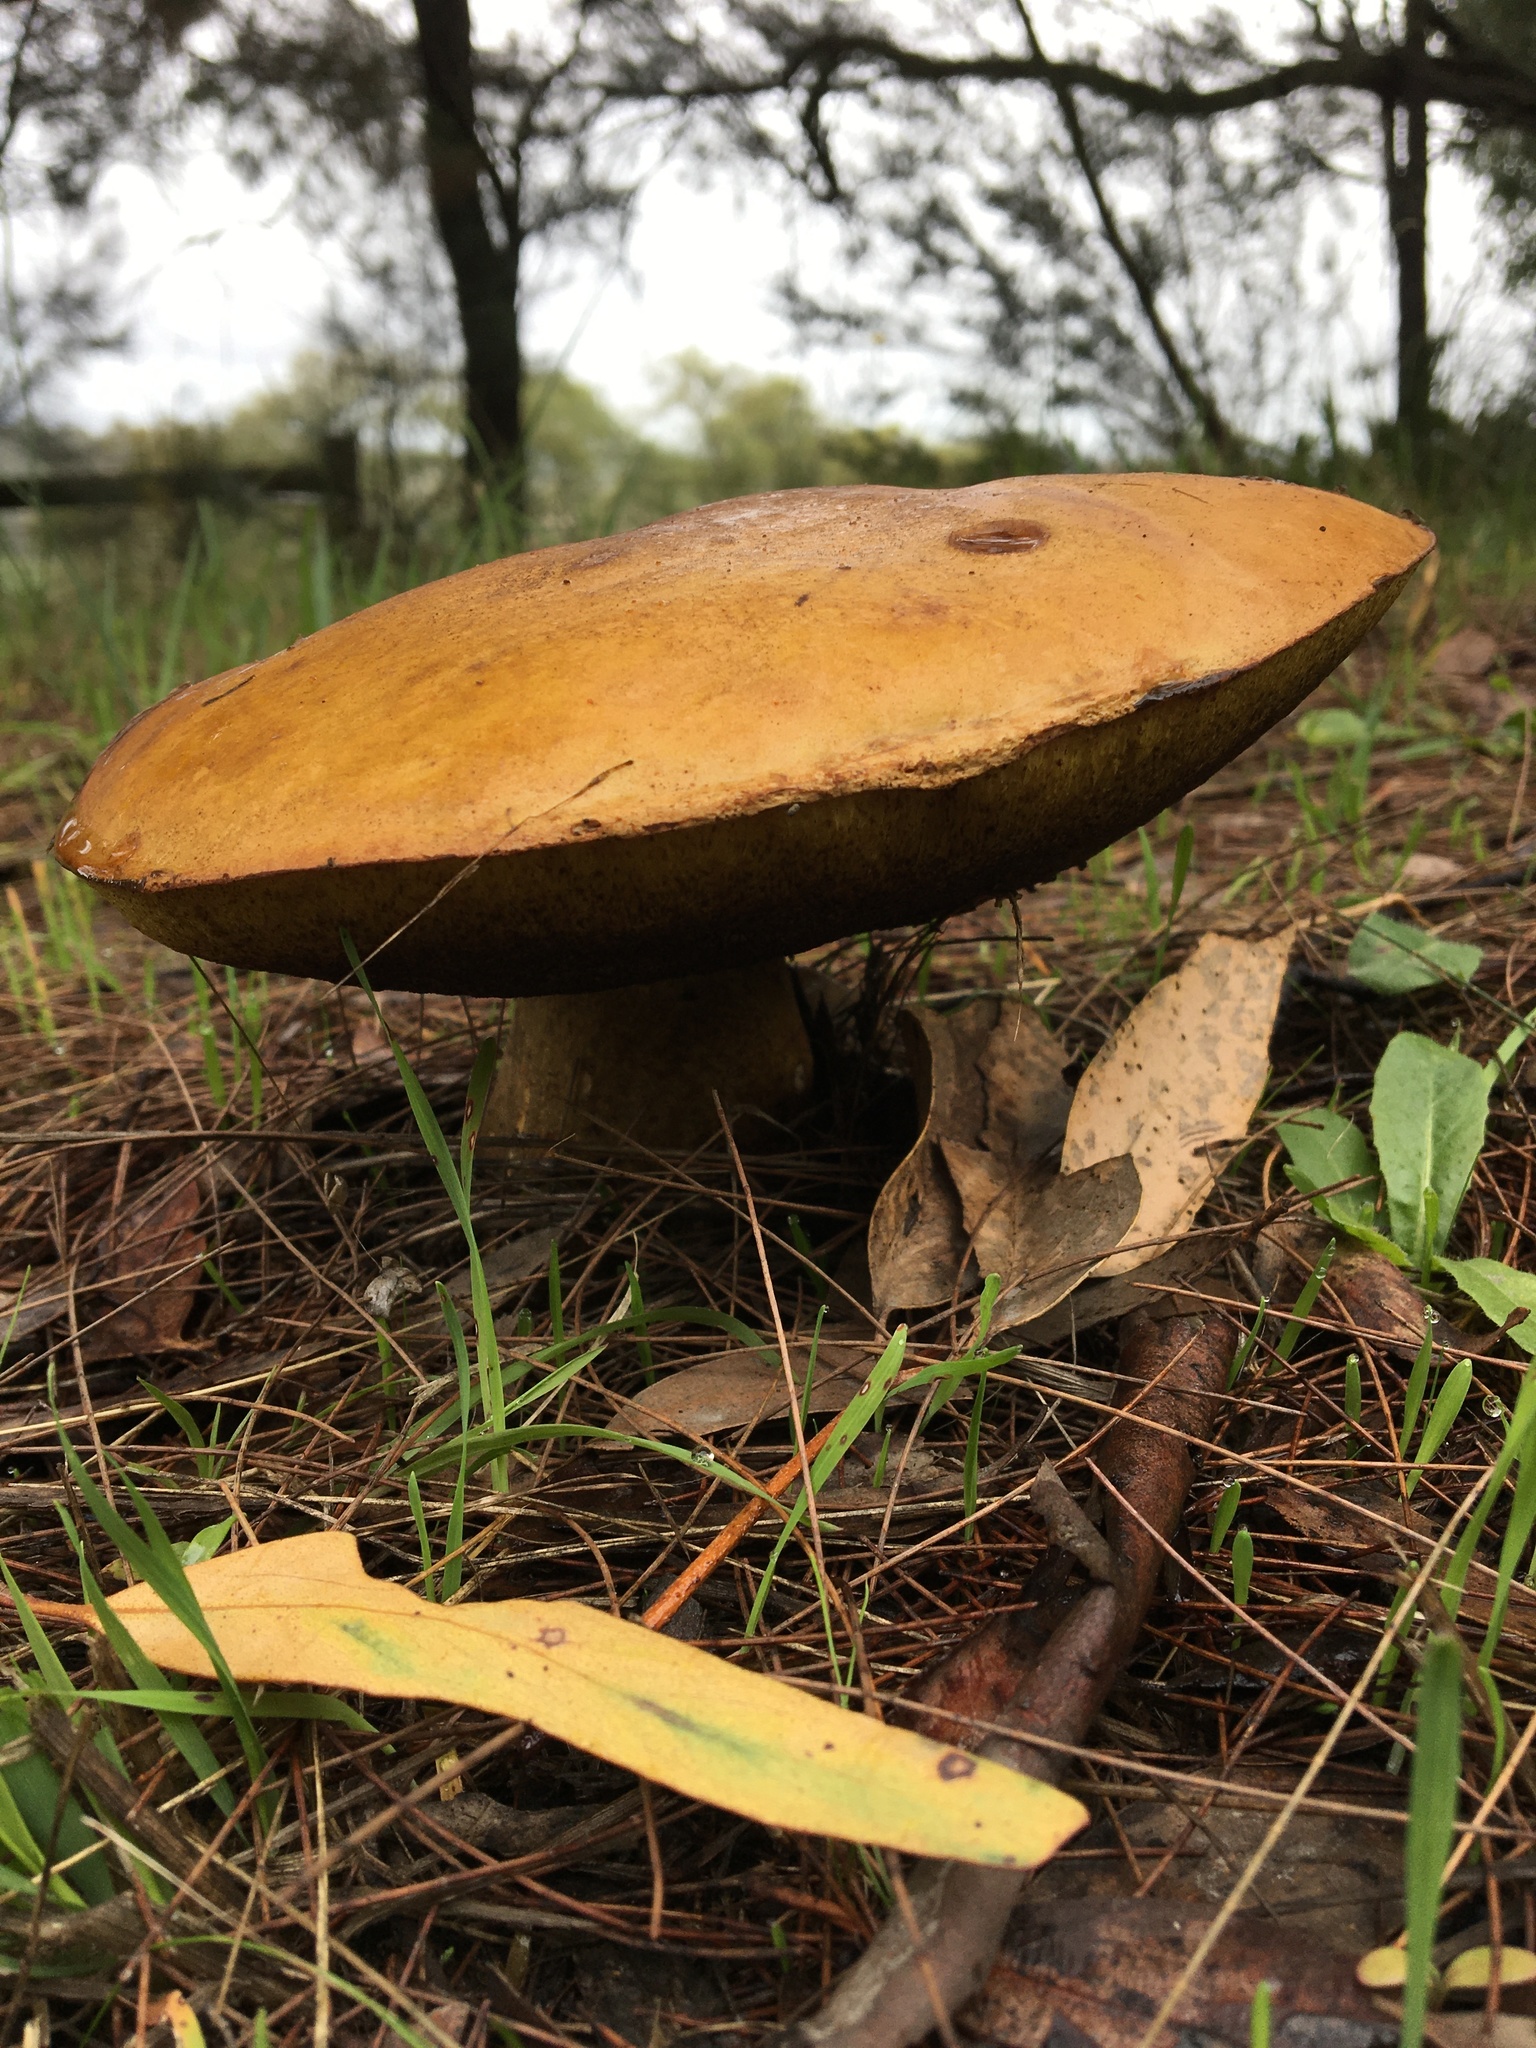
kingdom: Fungi
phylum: Basidiomycota
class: Agaricomycetes
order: Boletales
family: Boletinellaceae
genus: Phlebopus
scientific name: Phlebopus marginatus
